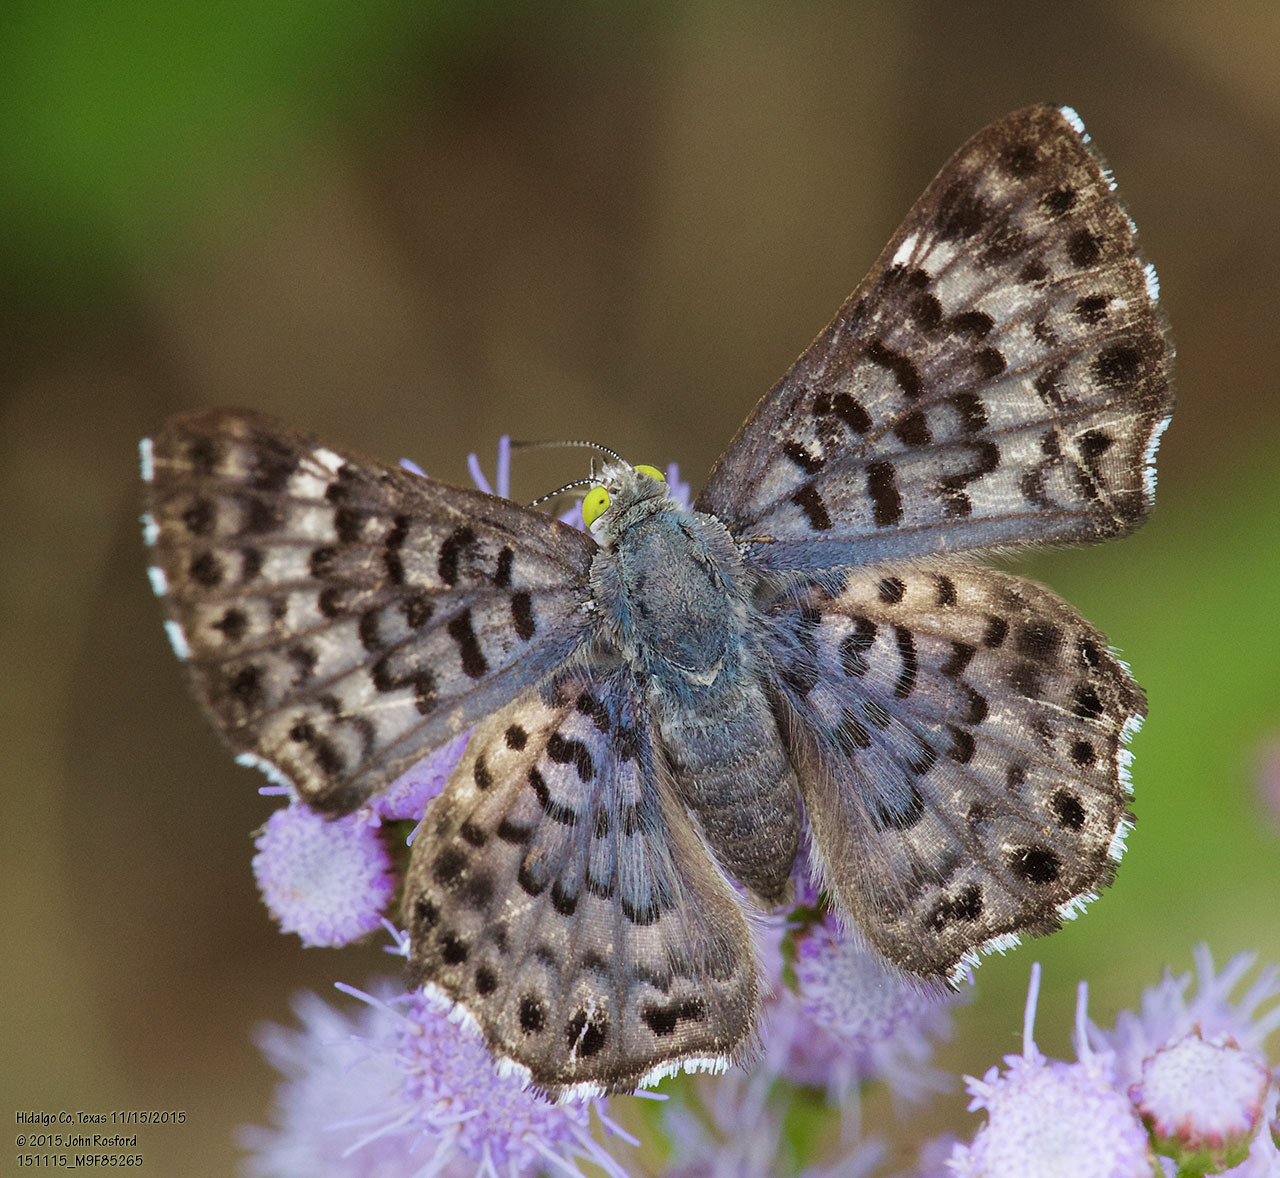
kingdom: Animalia
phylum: Arthropoda
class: Insecta
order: Lepidoptera
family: Riodinidae
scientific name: Riodinidae
